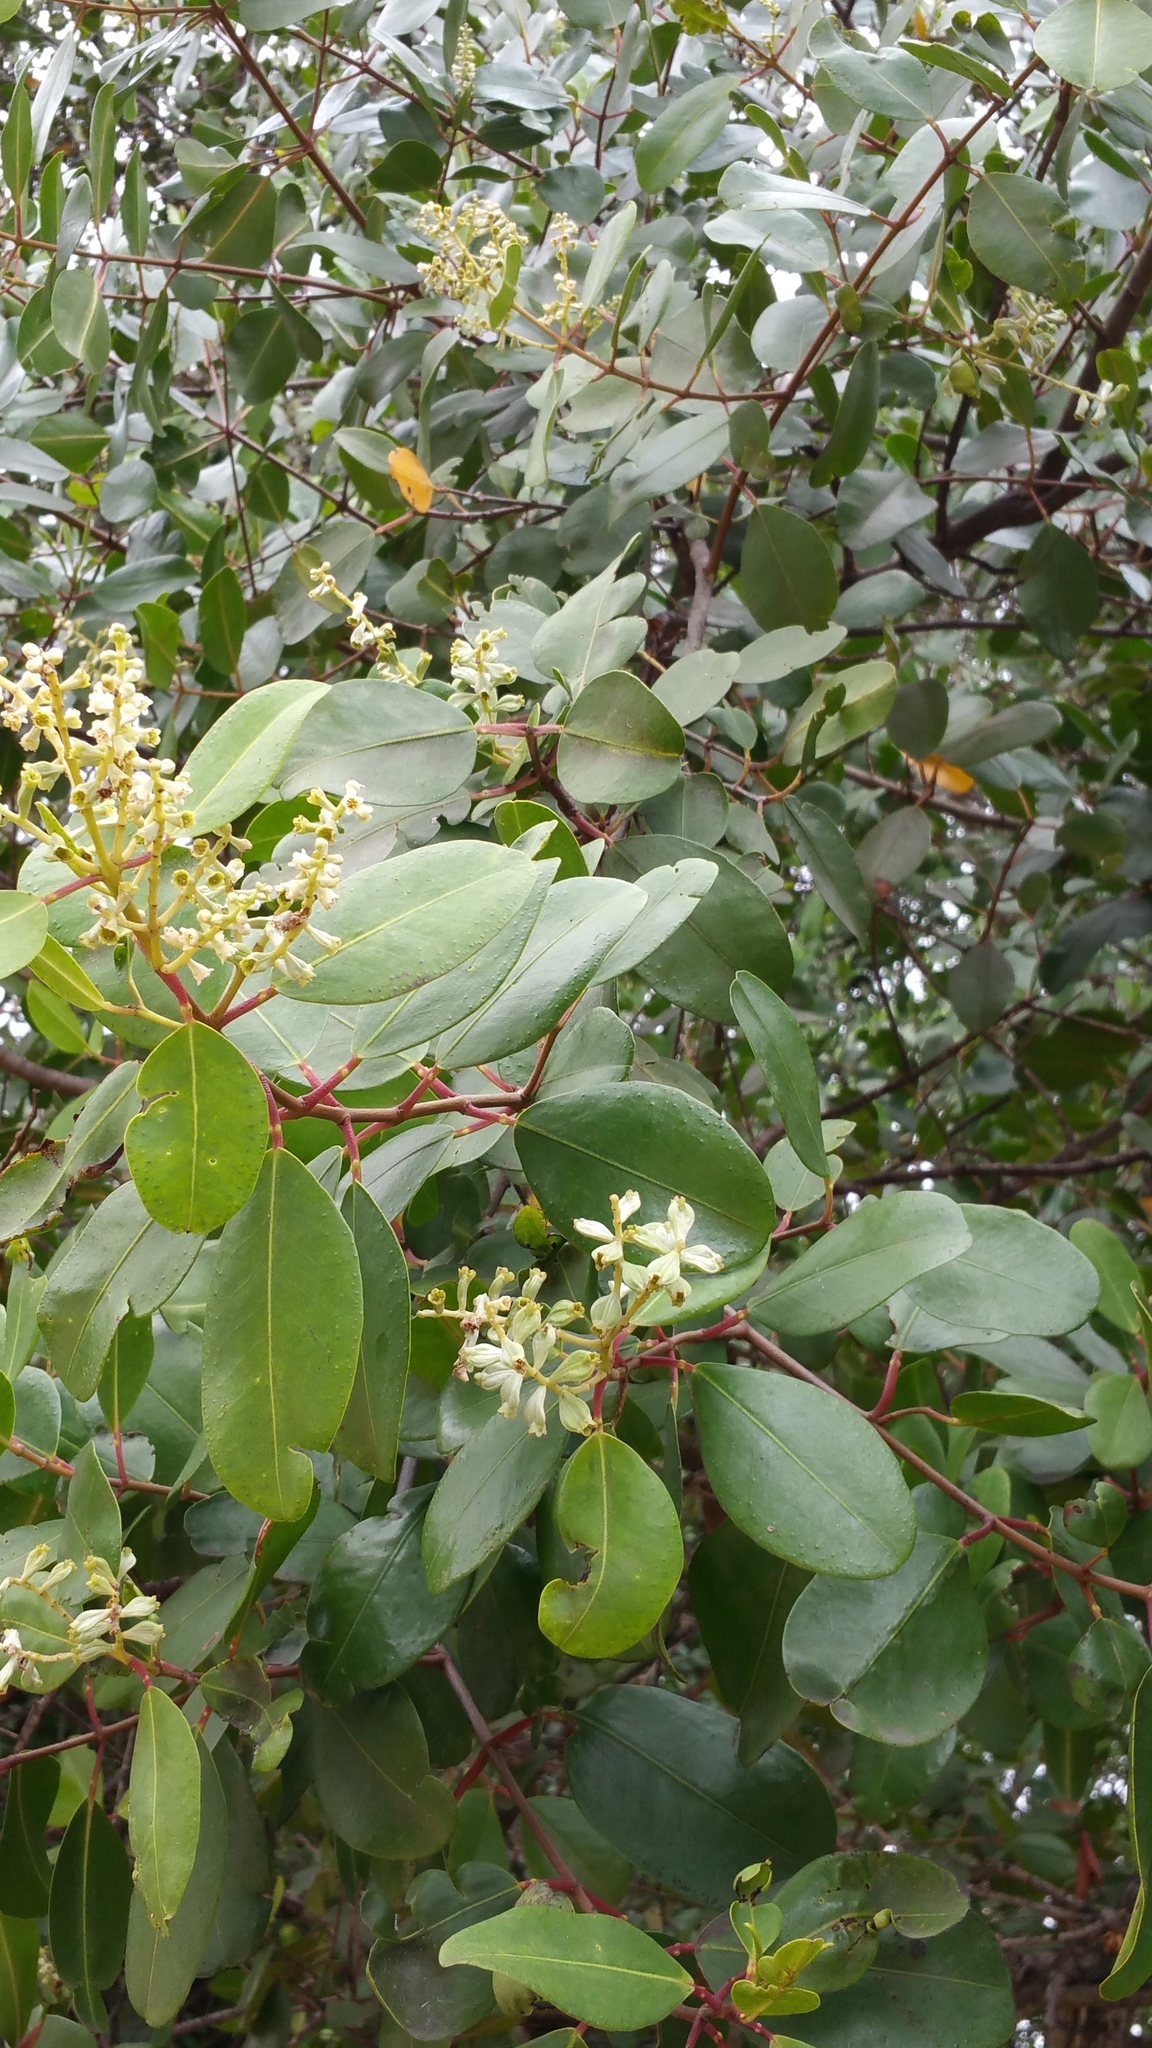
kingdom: Plantae
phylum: Tracheophyta
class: Magnoliopsida
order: Myrtales
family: Combretaceae
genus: Laguncularia
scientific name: Laguncularia racemosa
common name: White mangrove
